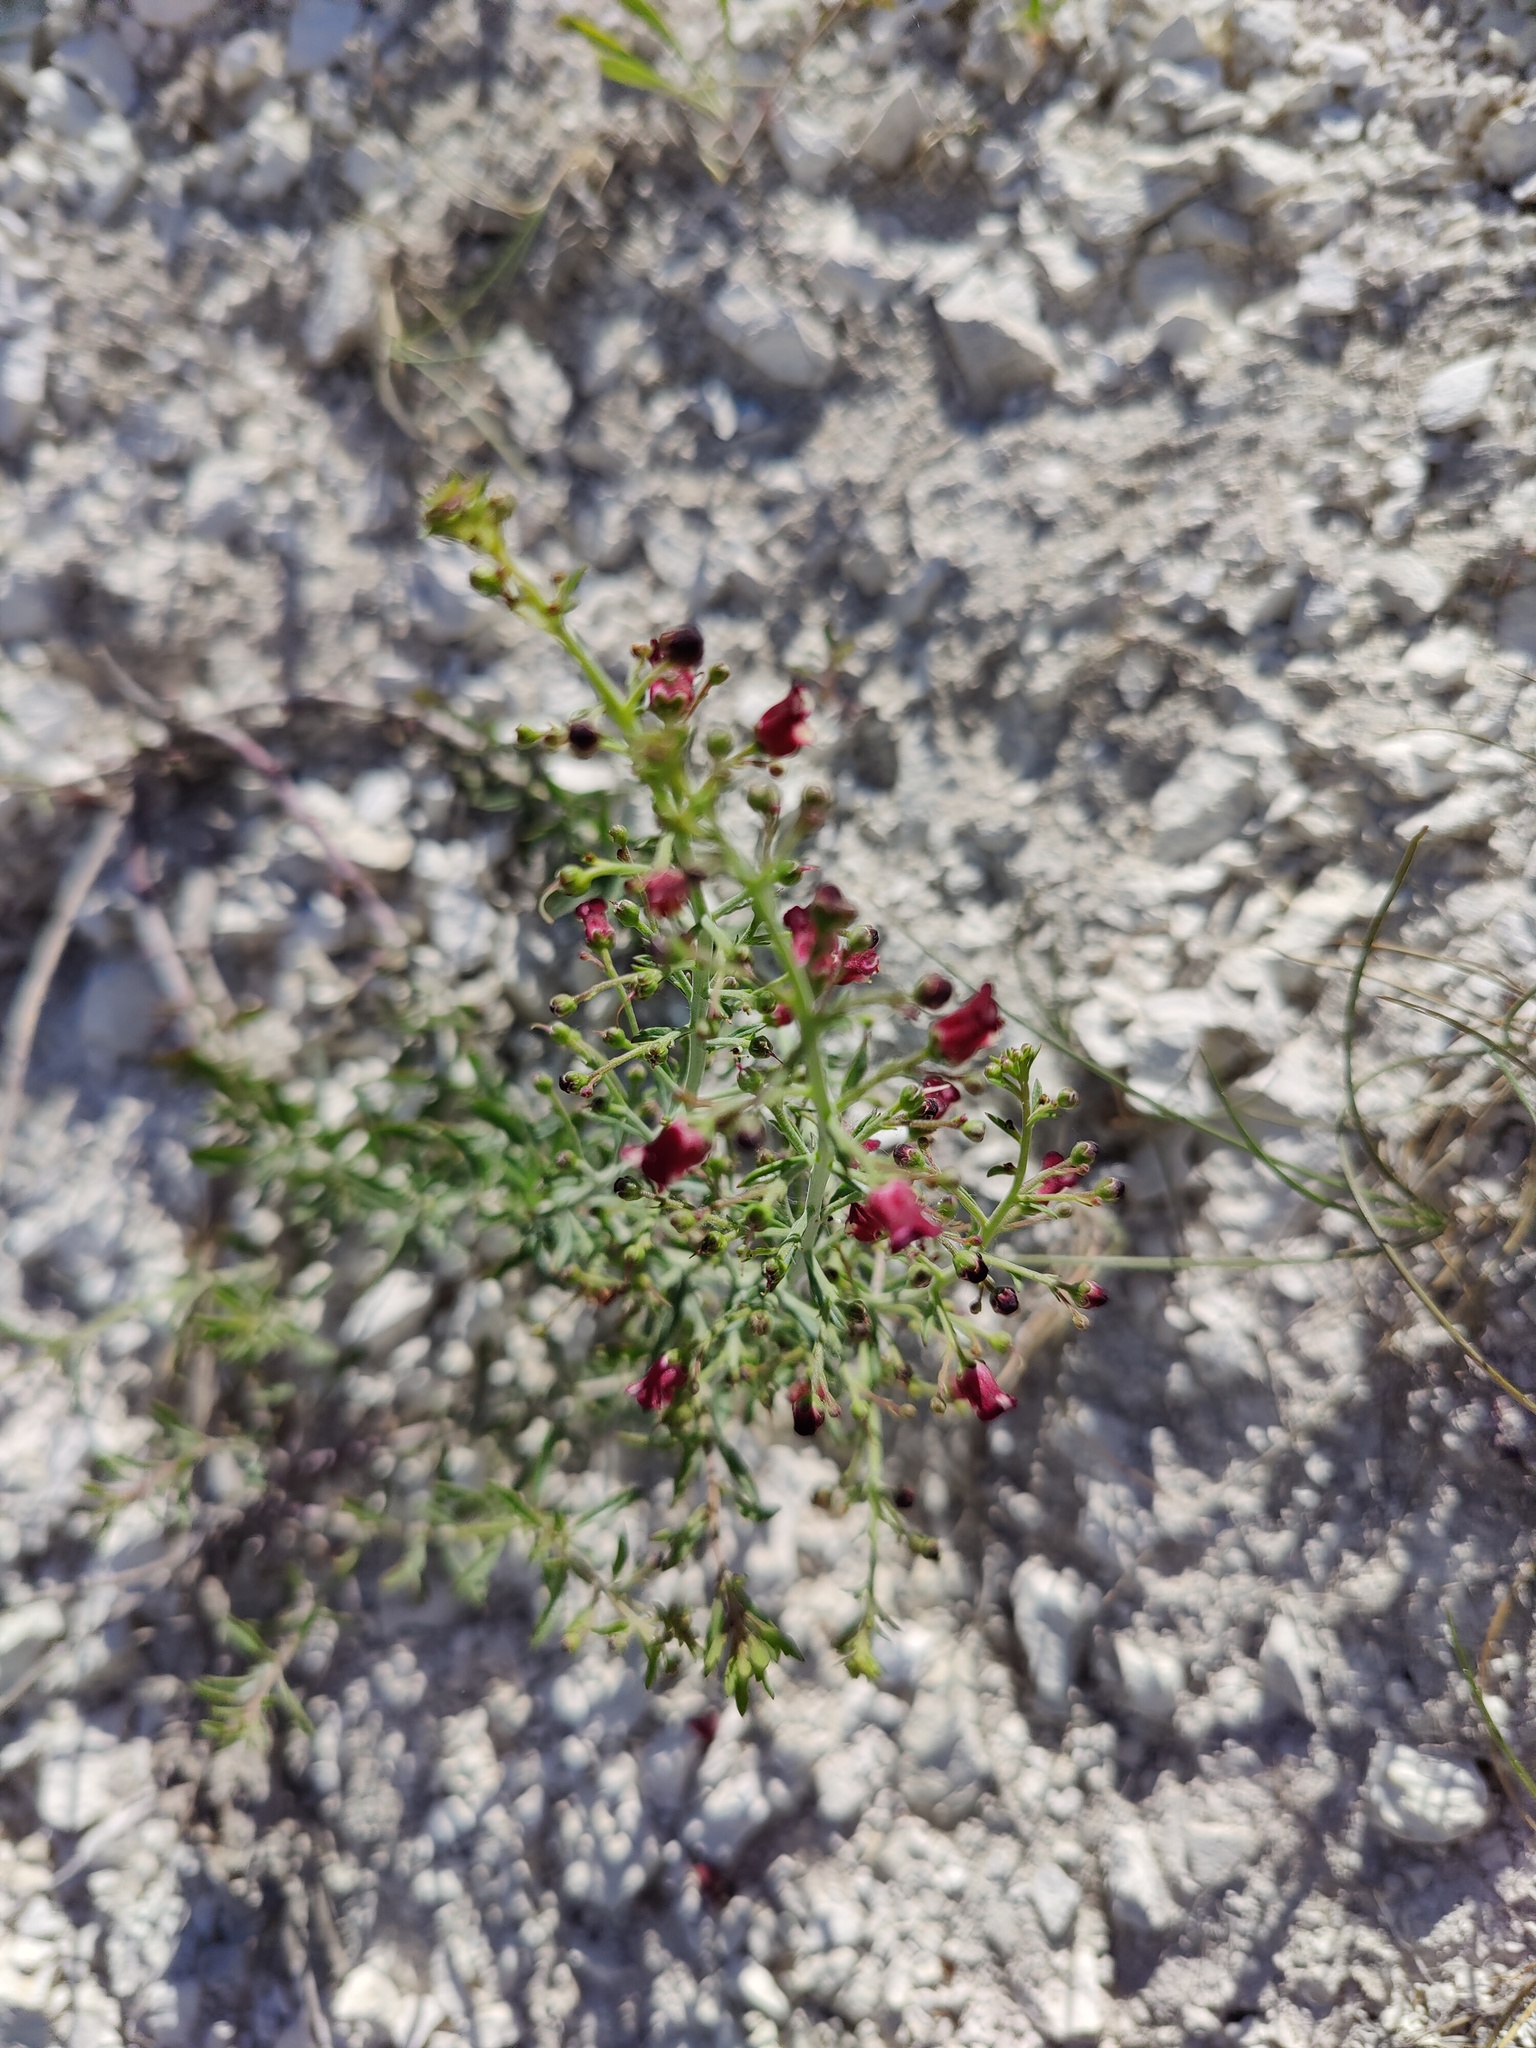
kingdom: Plantae
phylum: Tracheophyta
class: Magnoliopsida
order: Lamiales
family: Scrophulariaceae
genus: Scrophularia
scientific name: Scrophularia cretacea
